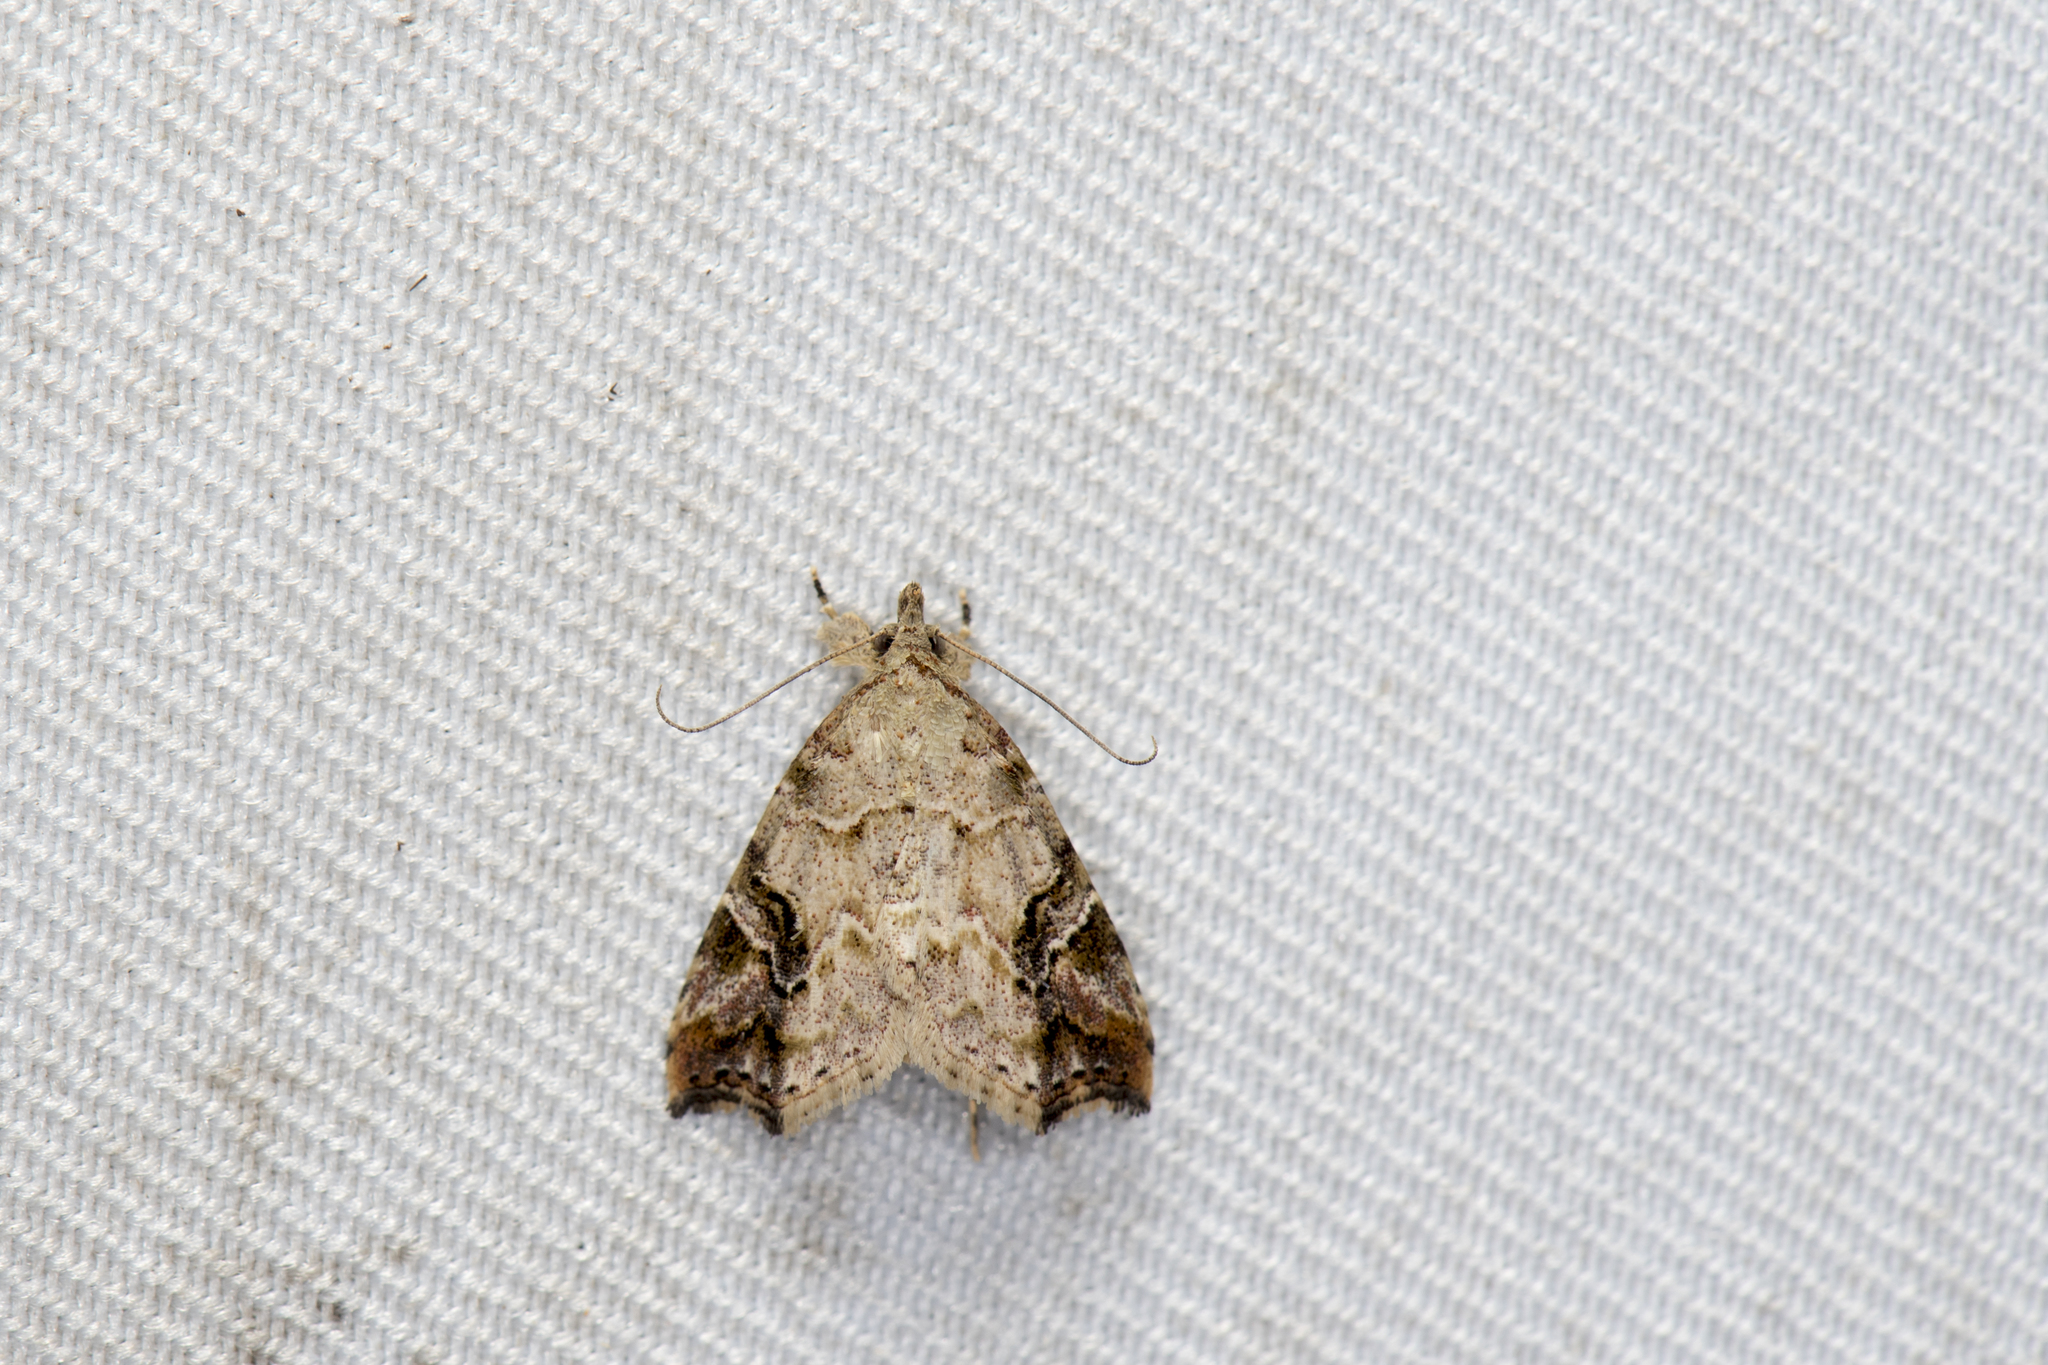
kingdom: Animalia
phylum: Arthropoda
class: Insecta
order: Lepidoptera
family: Erebidae
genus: Tipasa
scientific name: Tipasa renalis
